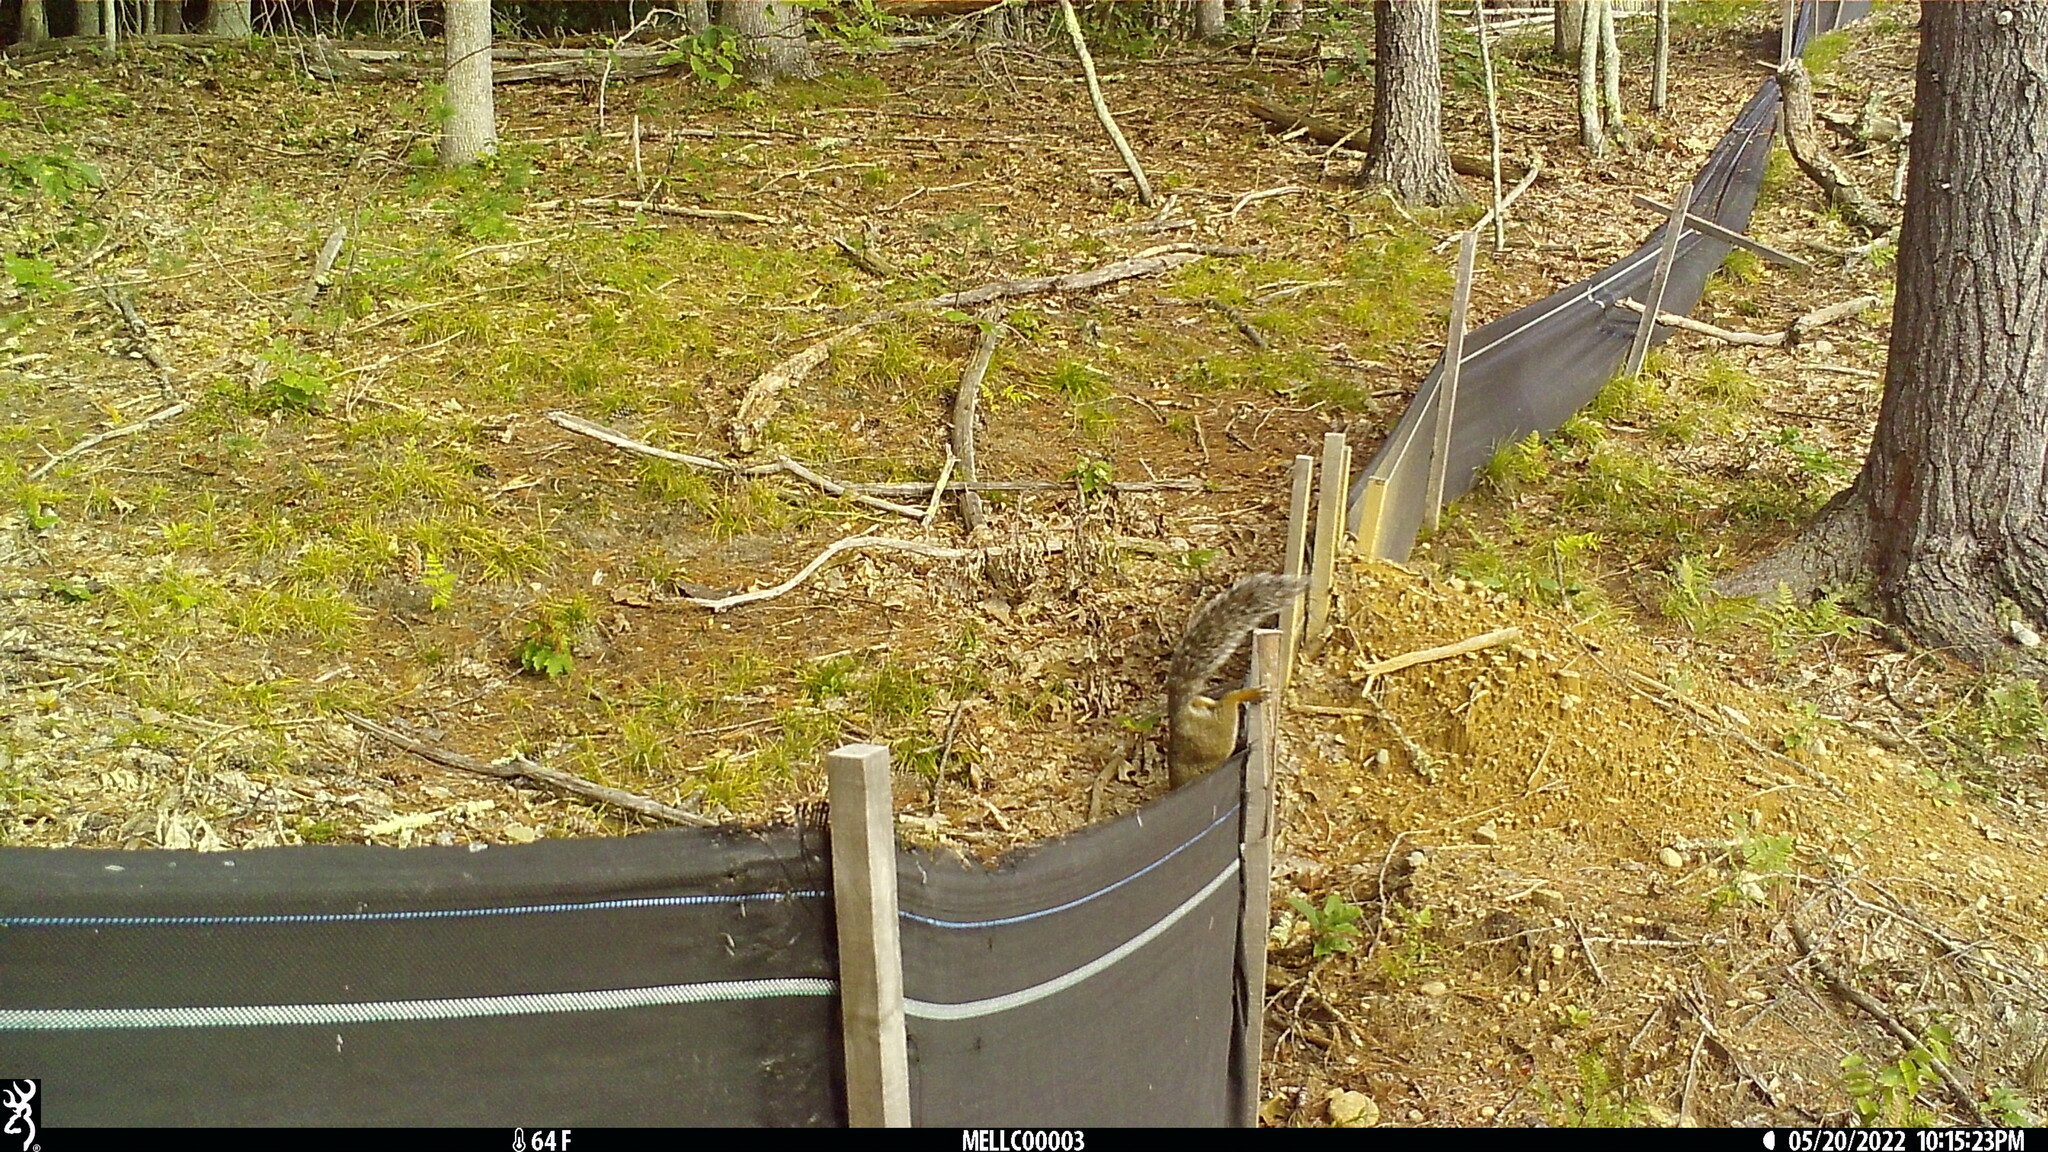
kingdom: Animalia
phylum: Chordata
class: Mammalia
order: Rodentia
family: Sciuridae
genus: Sciurus
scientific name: Sciurus carolinensis
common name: Eastern gray squirrel
